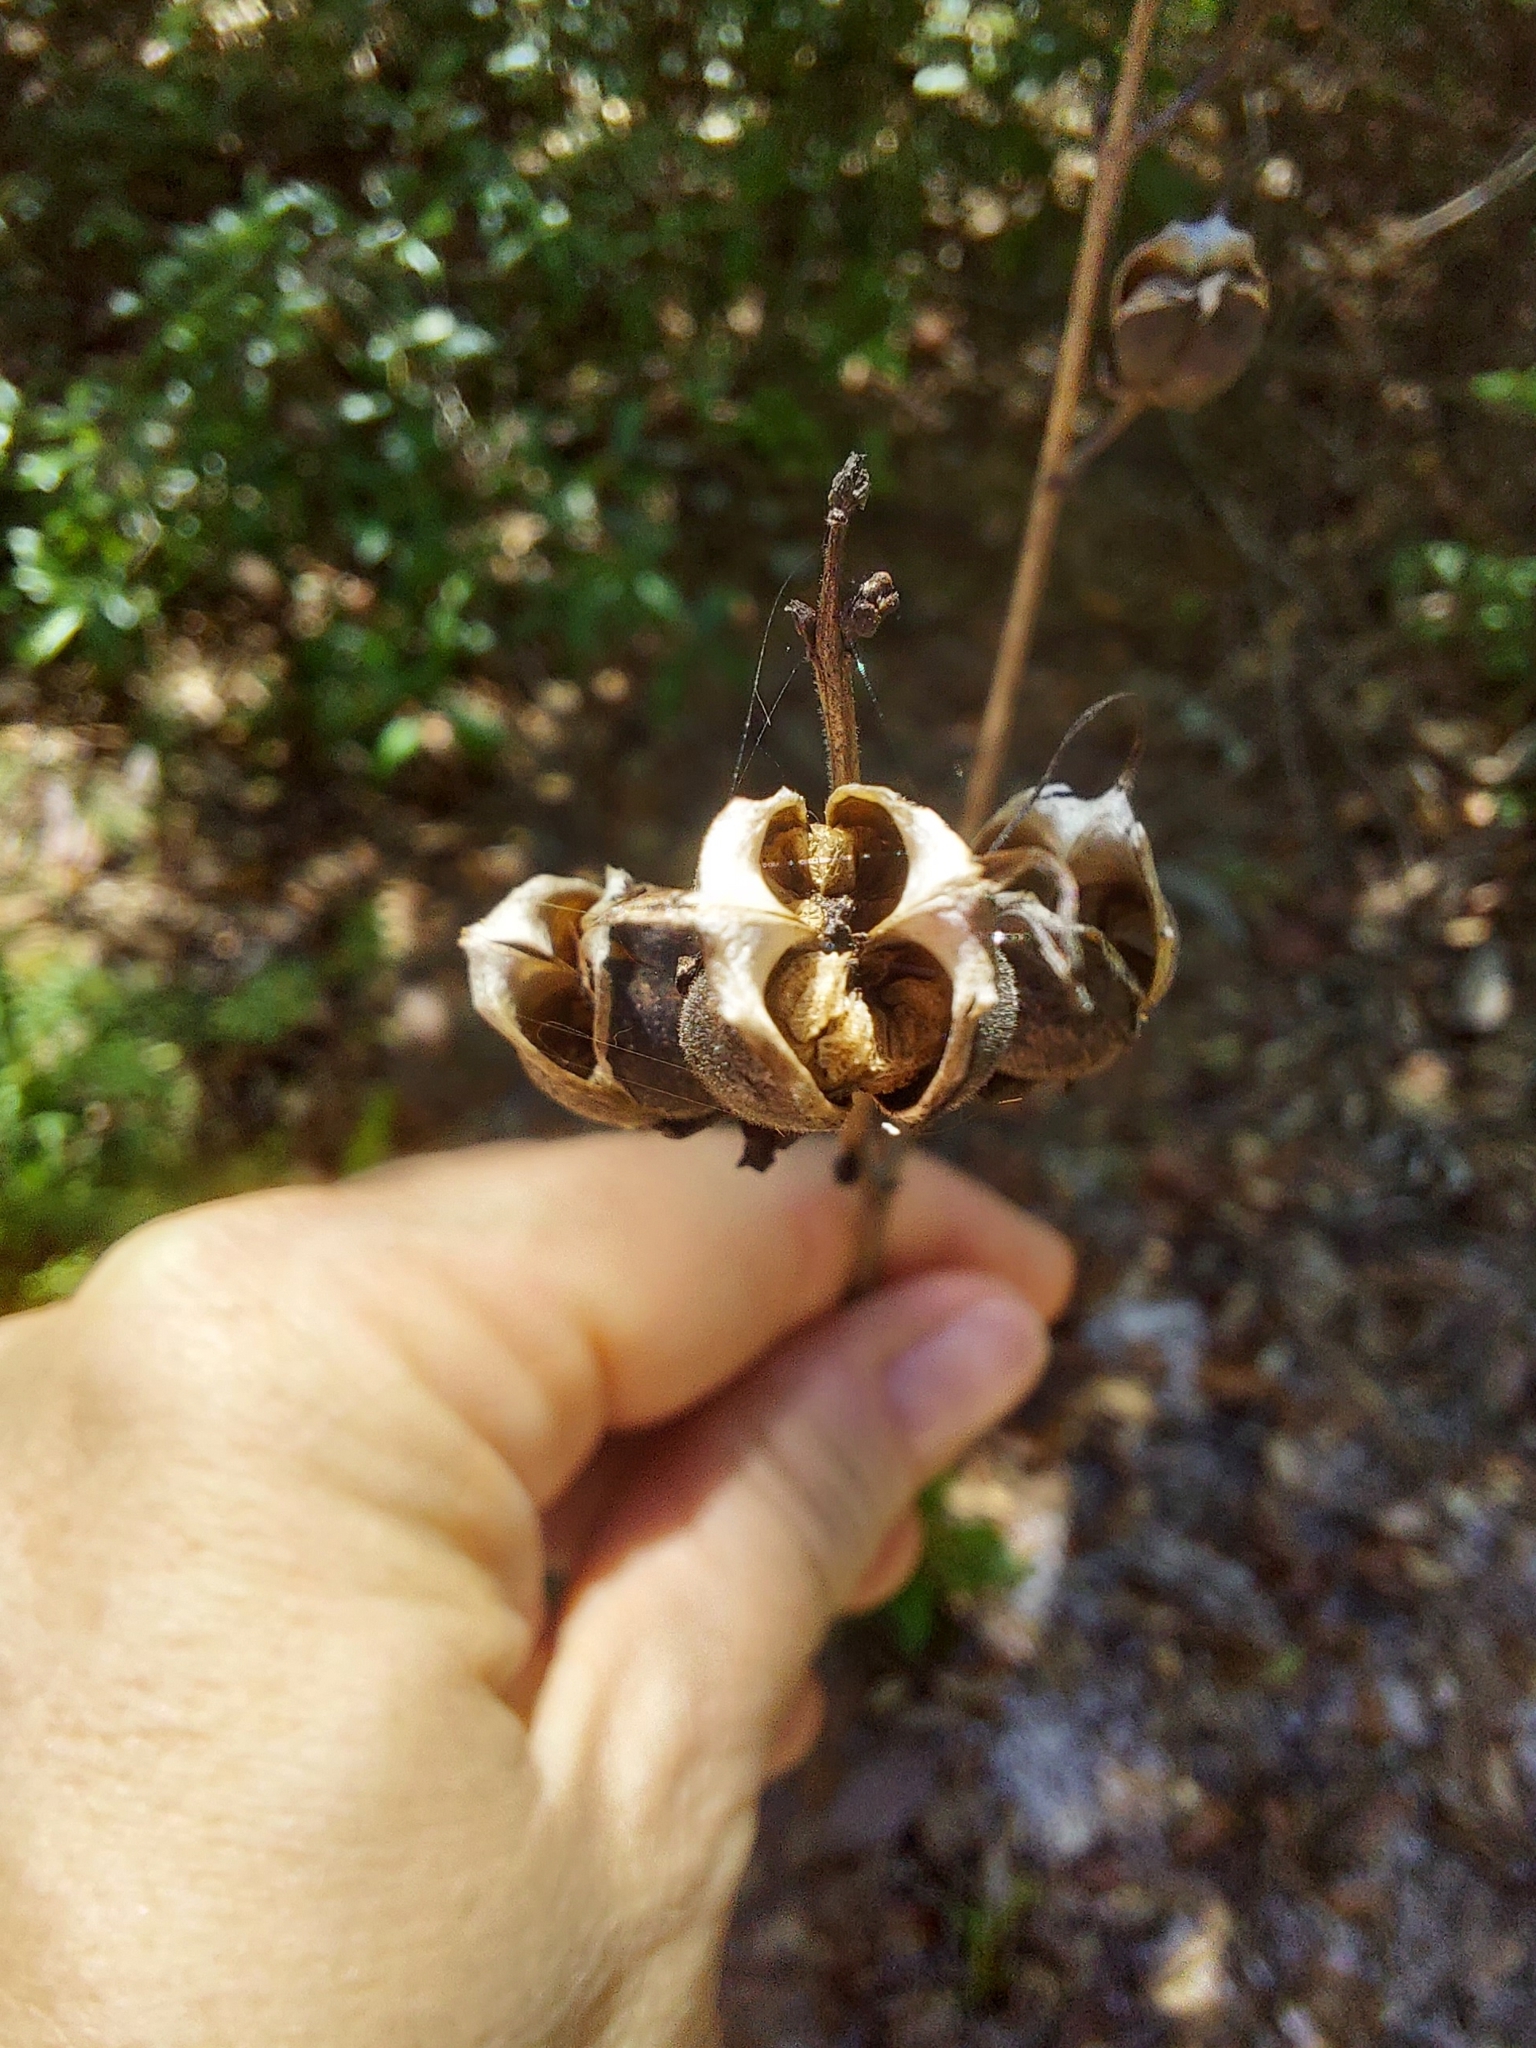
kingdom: Plantae
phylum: Tracheophyta
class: Magnoliopsida
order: Lamiales
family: Orobanchaceae
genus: Aureolaria
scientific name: Aureolaria flava
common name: Smooth false foxglove
